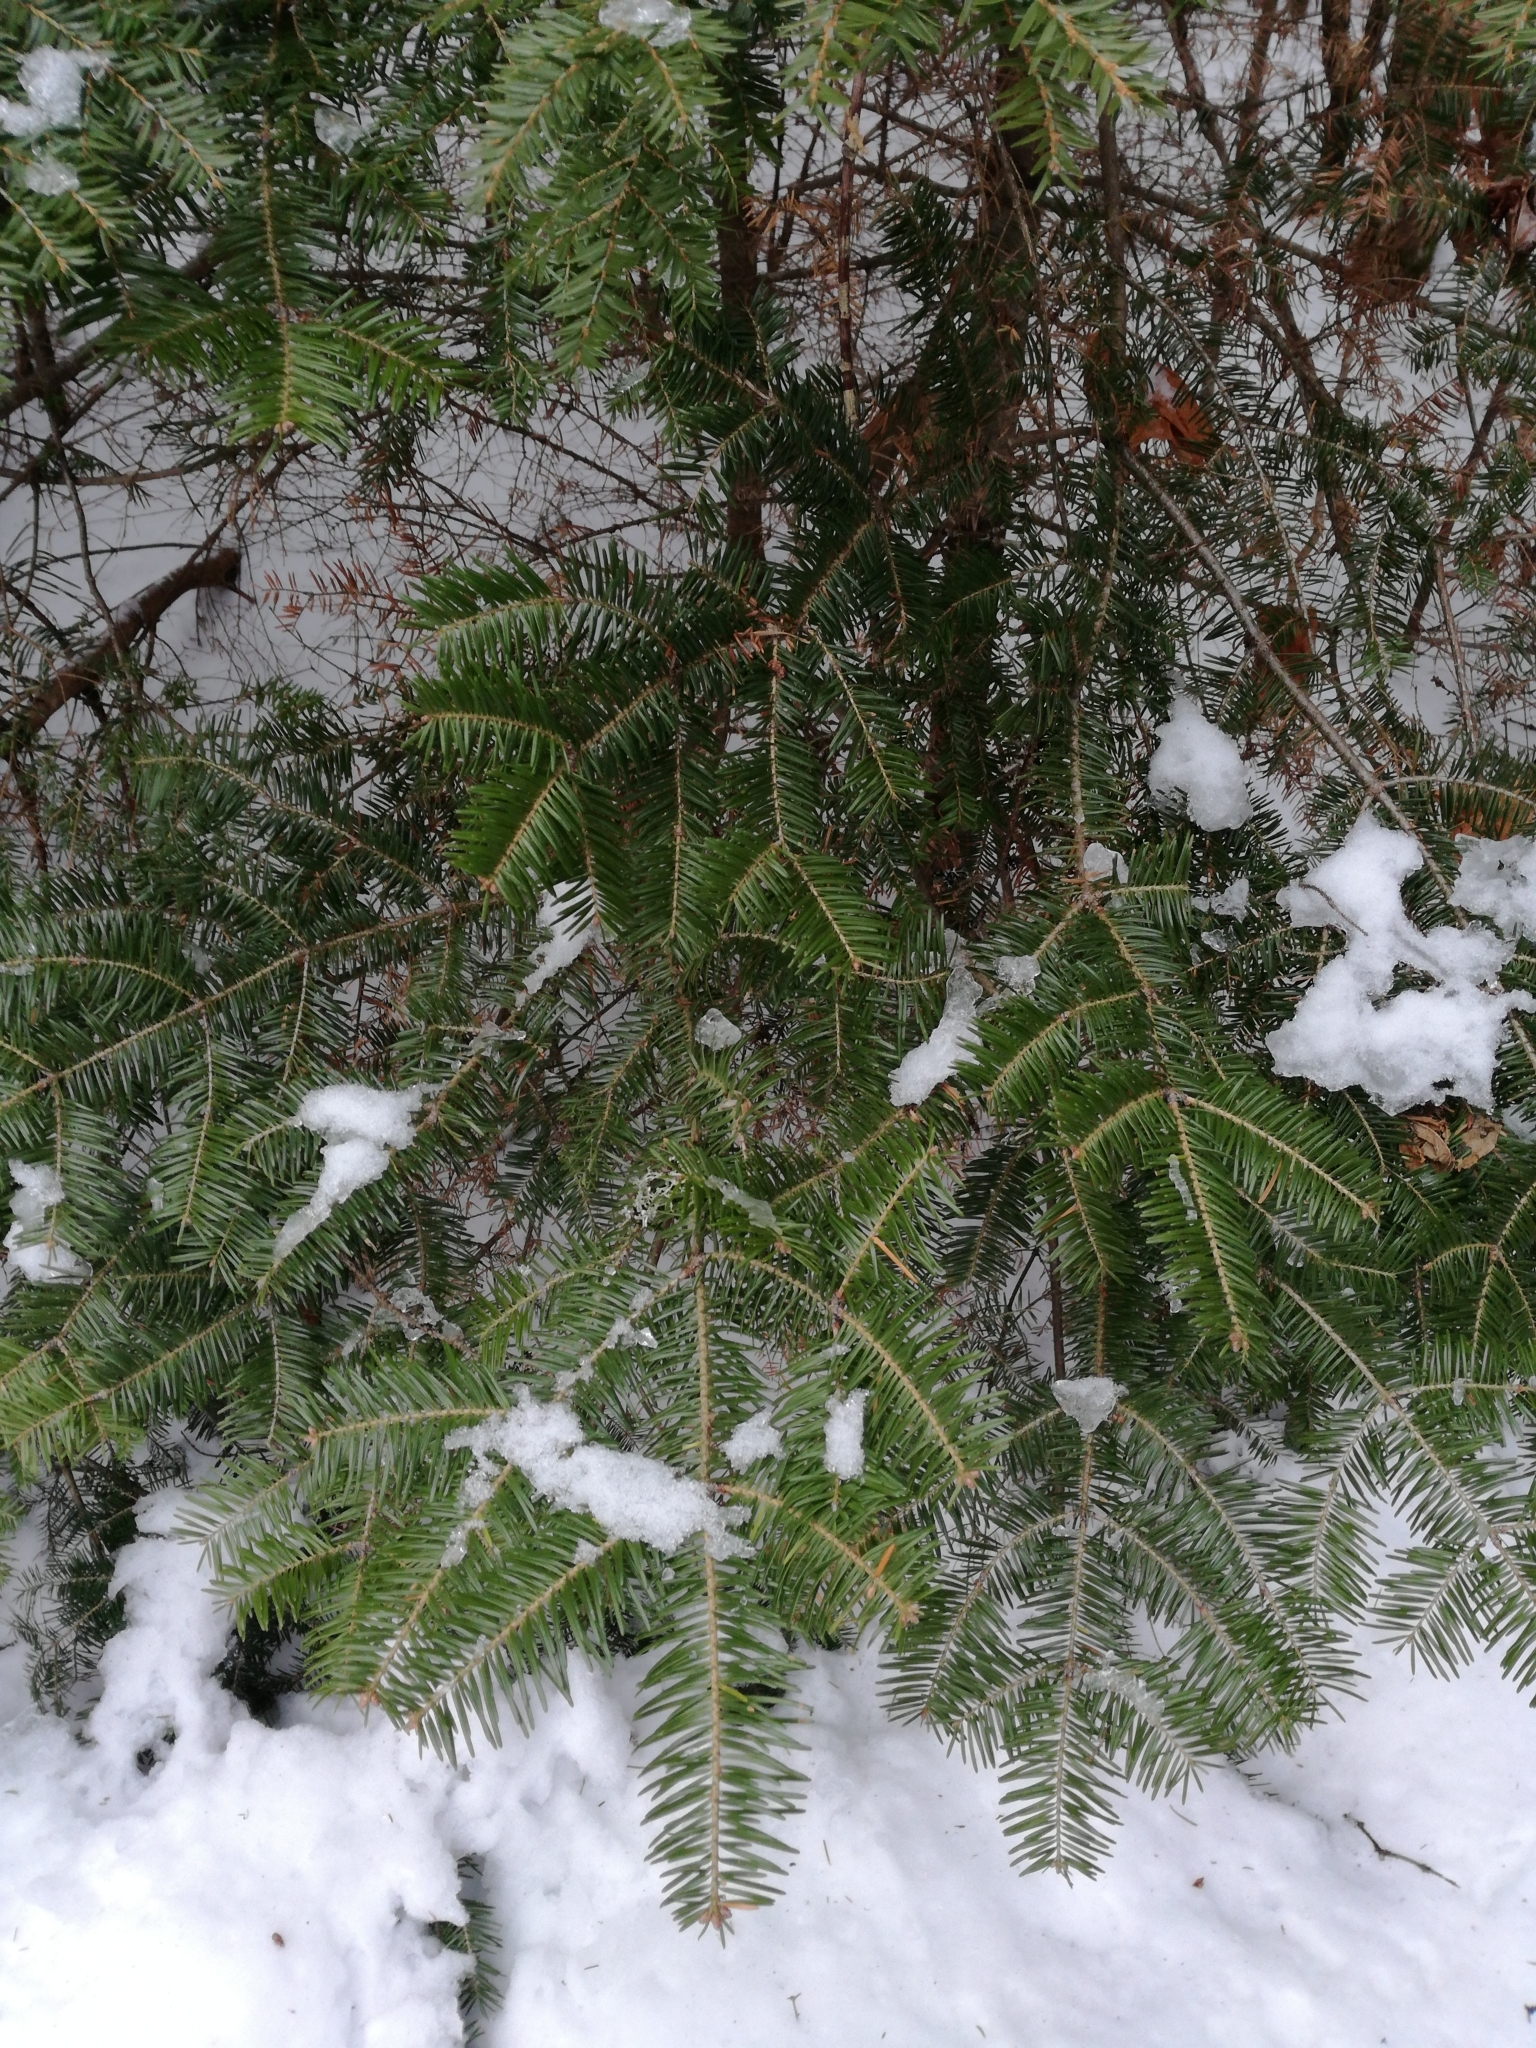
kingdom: Plantae
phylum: Tracheophyta
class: Pinopsida
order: Pinales
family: Pinaceae
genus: Abies
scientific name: Abies balsamea
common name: Balsam fir
